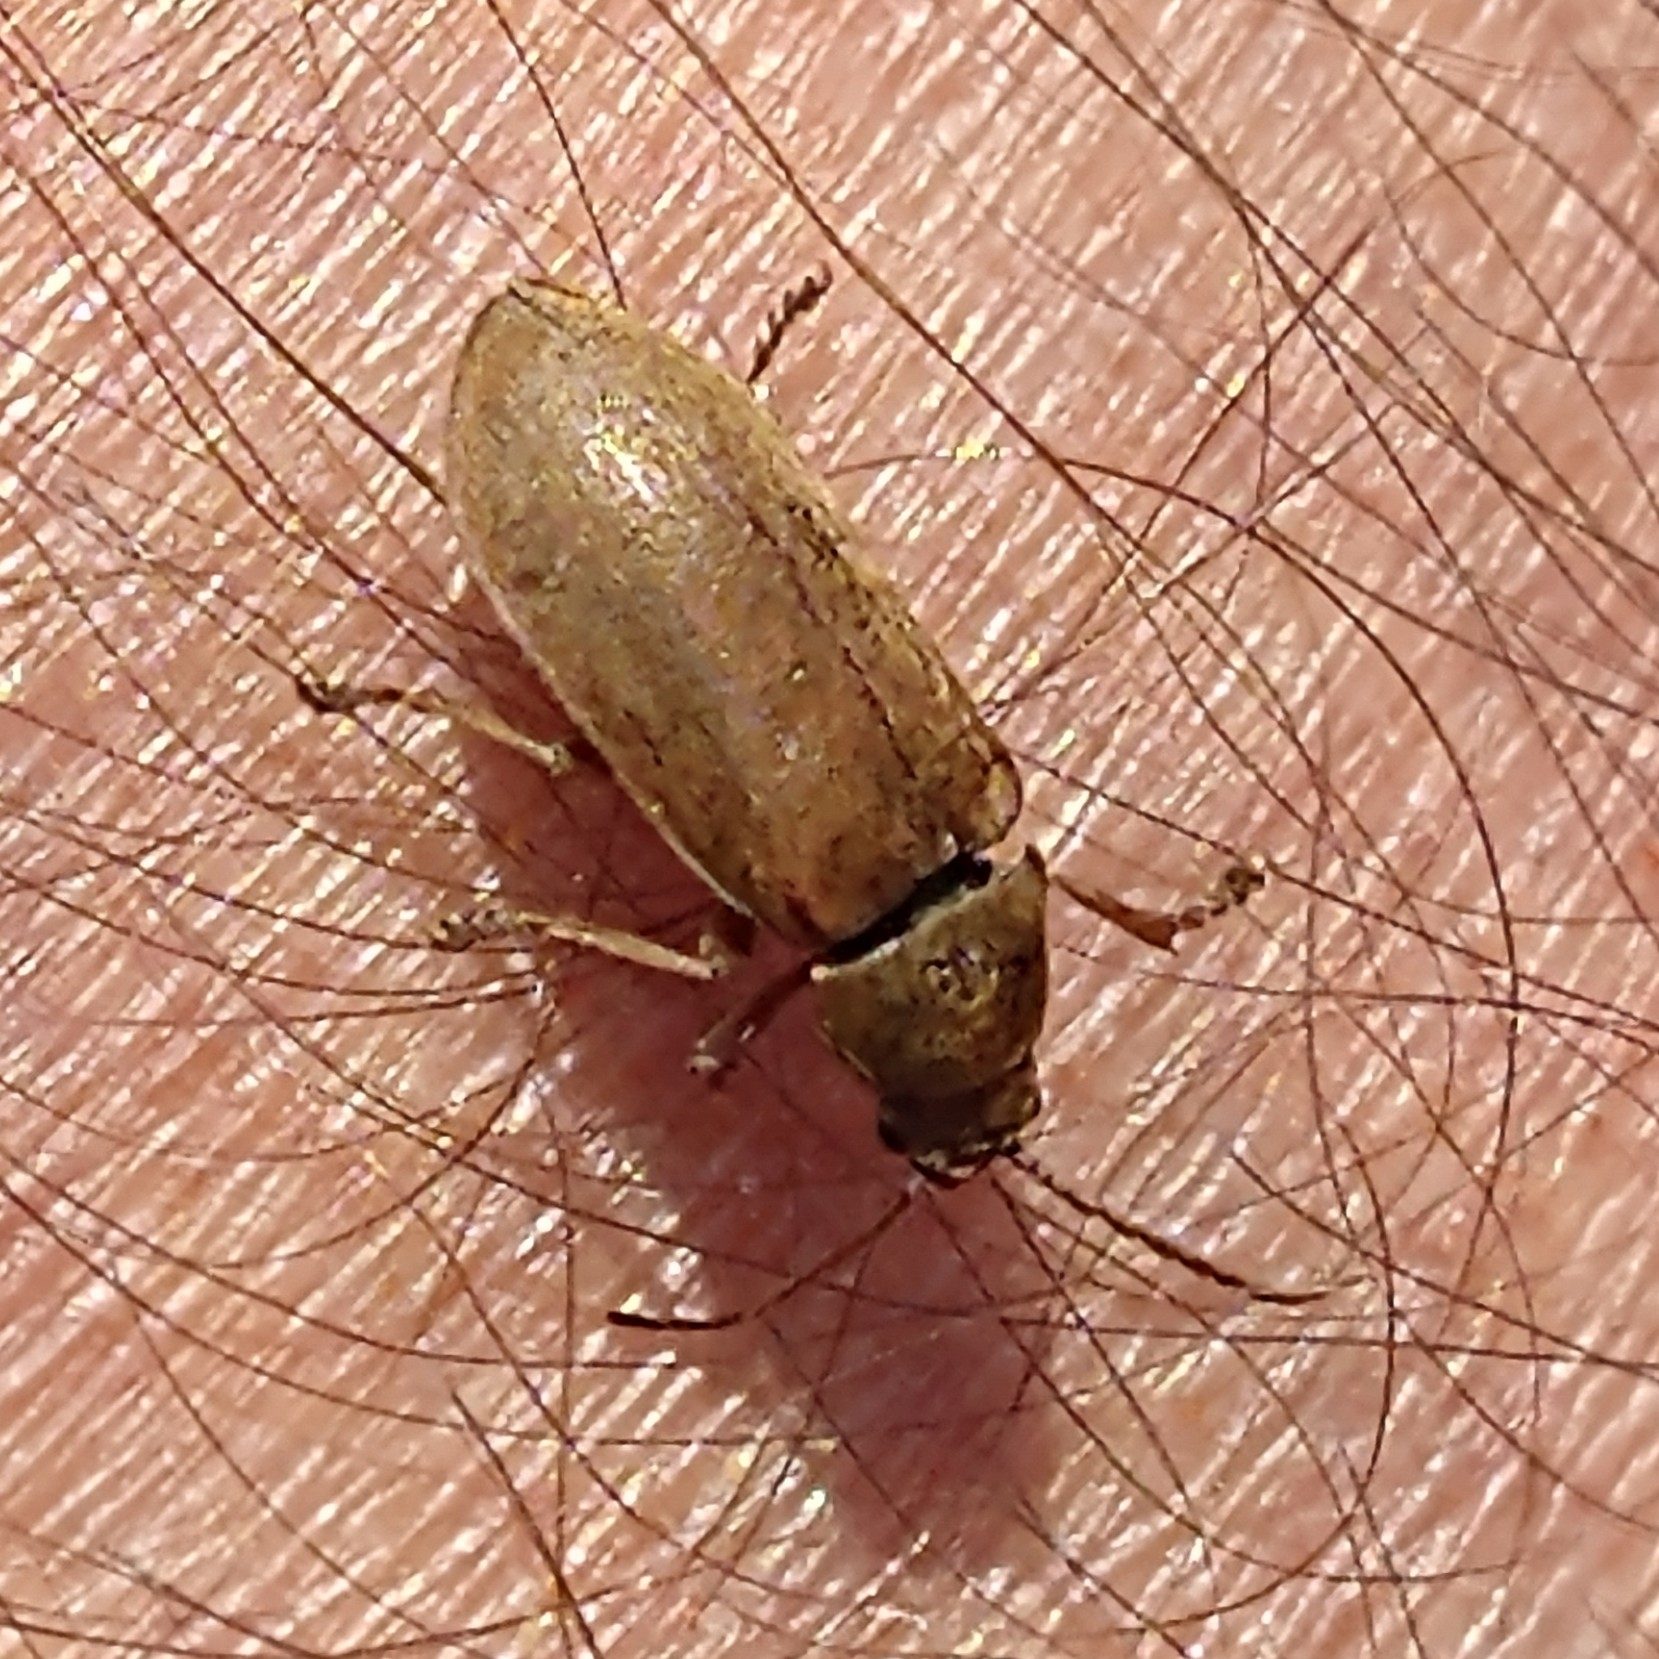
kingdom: Animalia
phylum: Arthropoda
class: Insecta
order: Coleoptera
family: Dascillidae
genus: Dascillus
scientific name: Dascillus cervinus
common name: Orchid beetle
